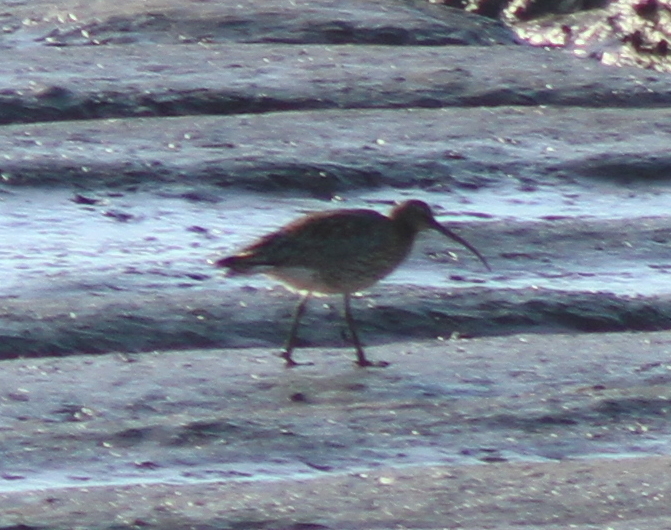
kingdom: Animalia
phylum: Chordata
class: Aves
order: Charadriiformes
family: Scolopacidae
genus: Numenius
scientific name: Numenius arquata
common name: Eurasian curlew
